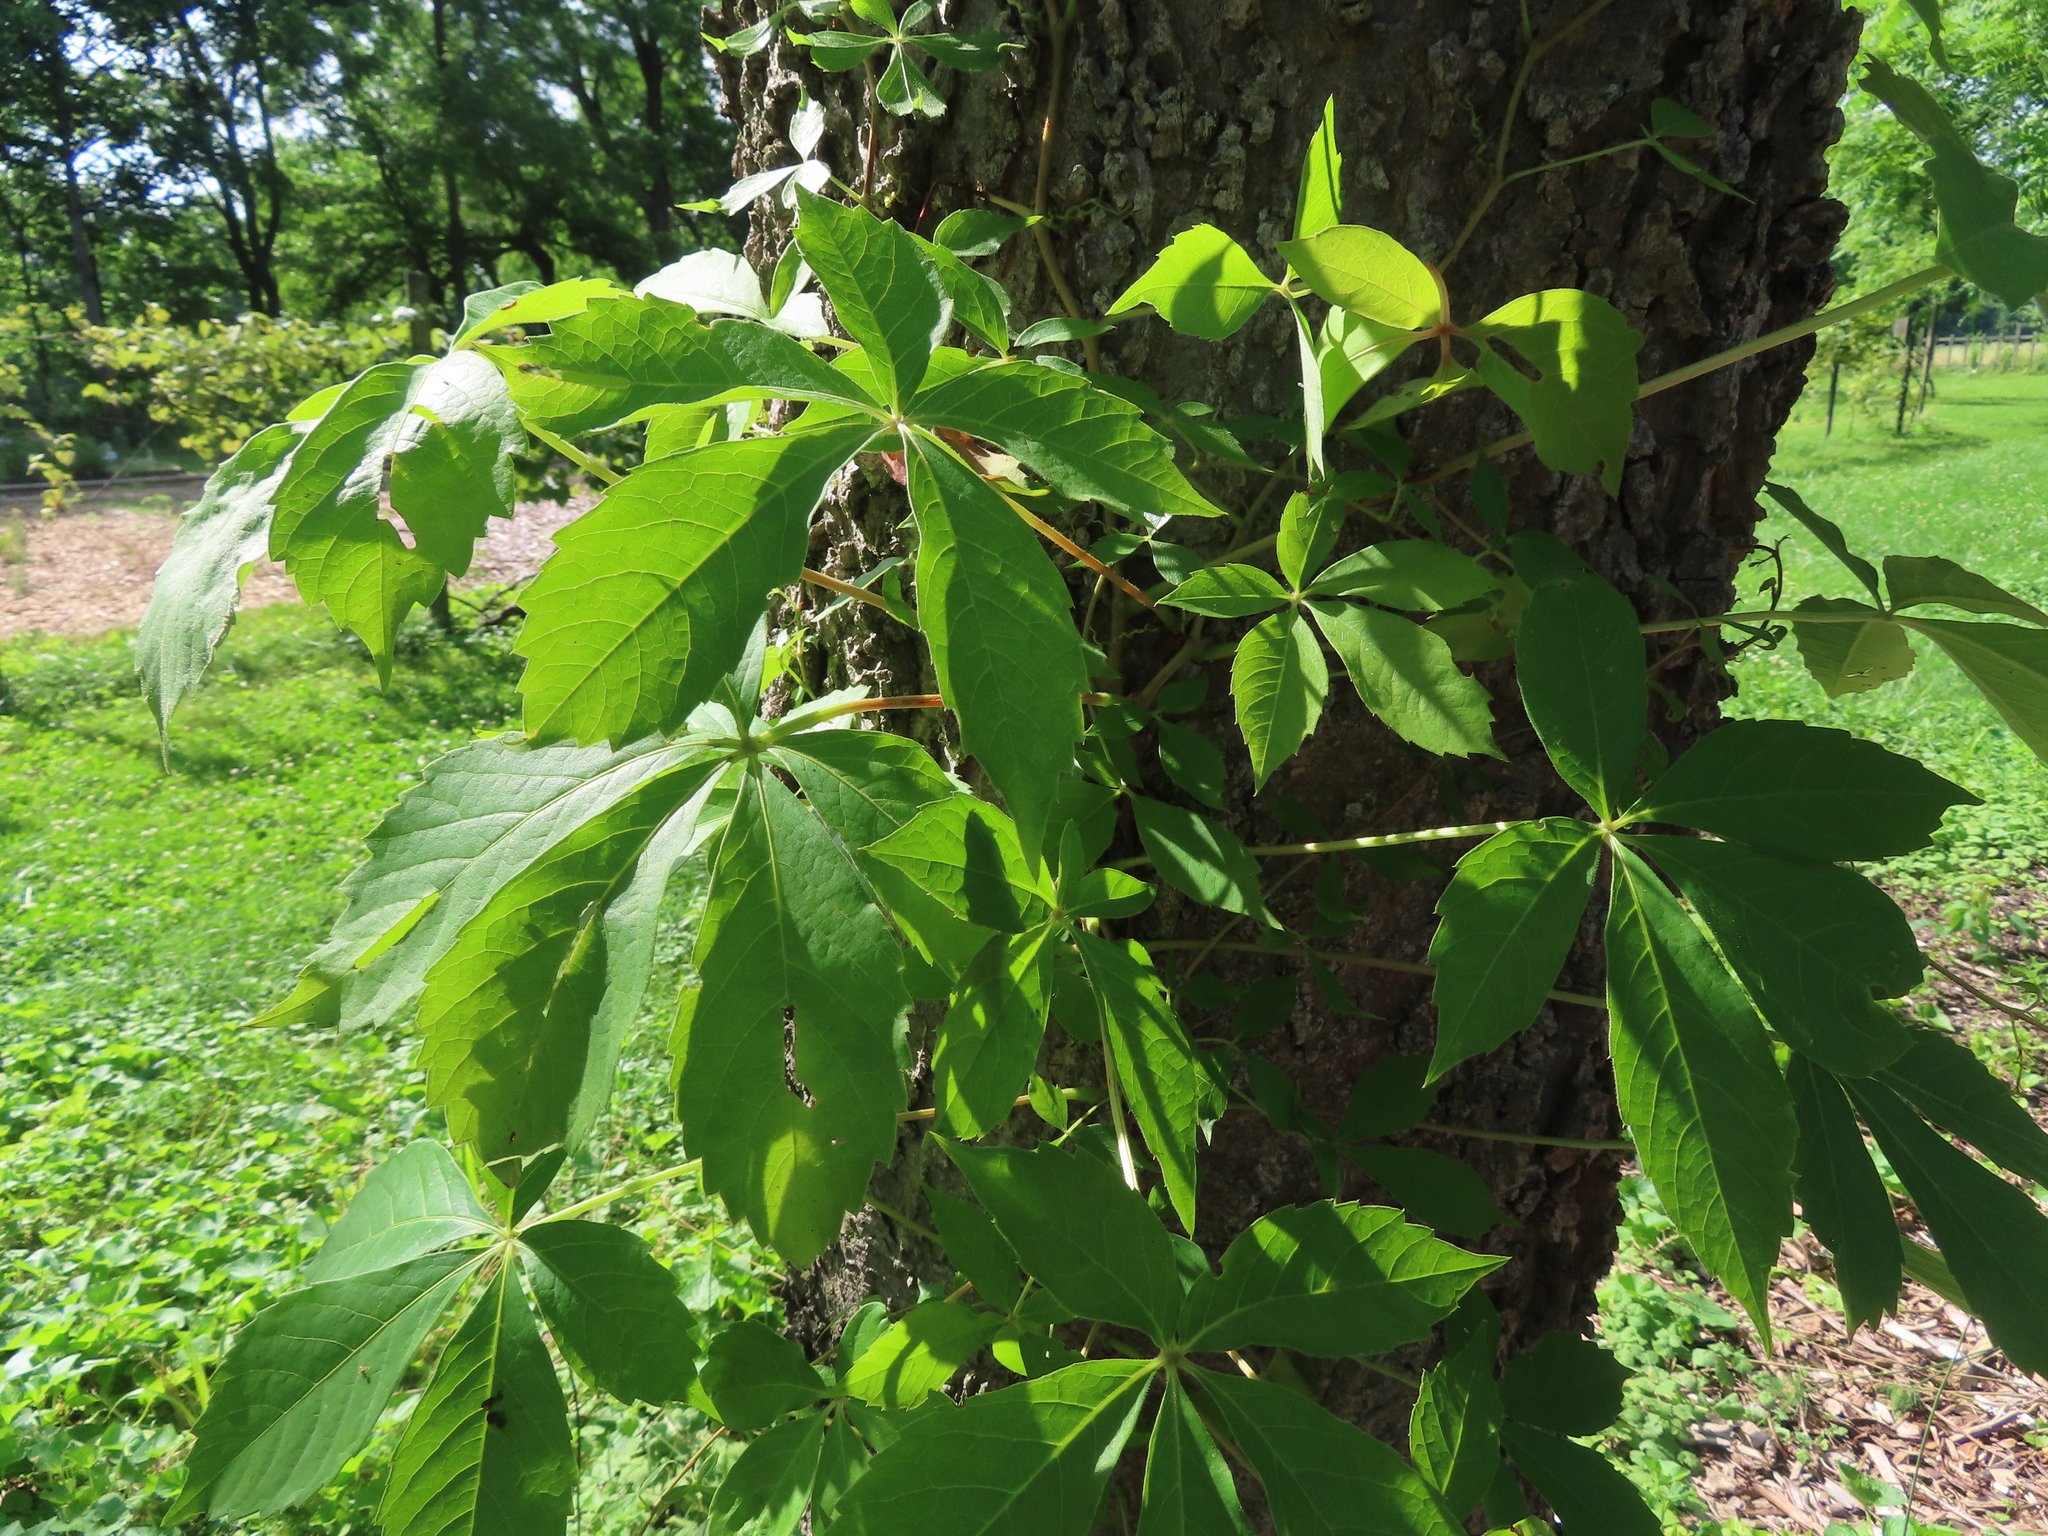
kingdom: Plantae
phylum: Tracheophyta
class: Magnoliopsida
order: Vitales
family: Vitaceae
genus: Parthenocissus
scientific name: Parthenocissus quinquefolia
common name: Virginia-creeper
